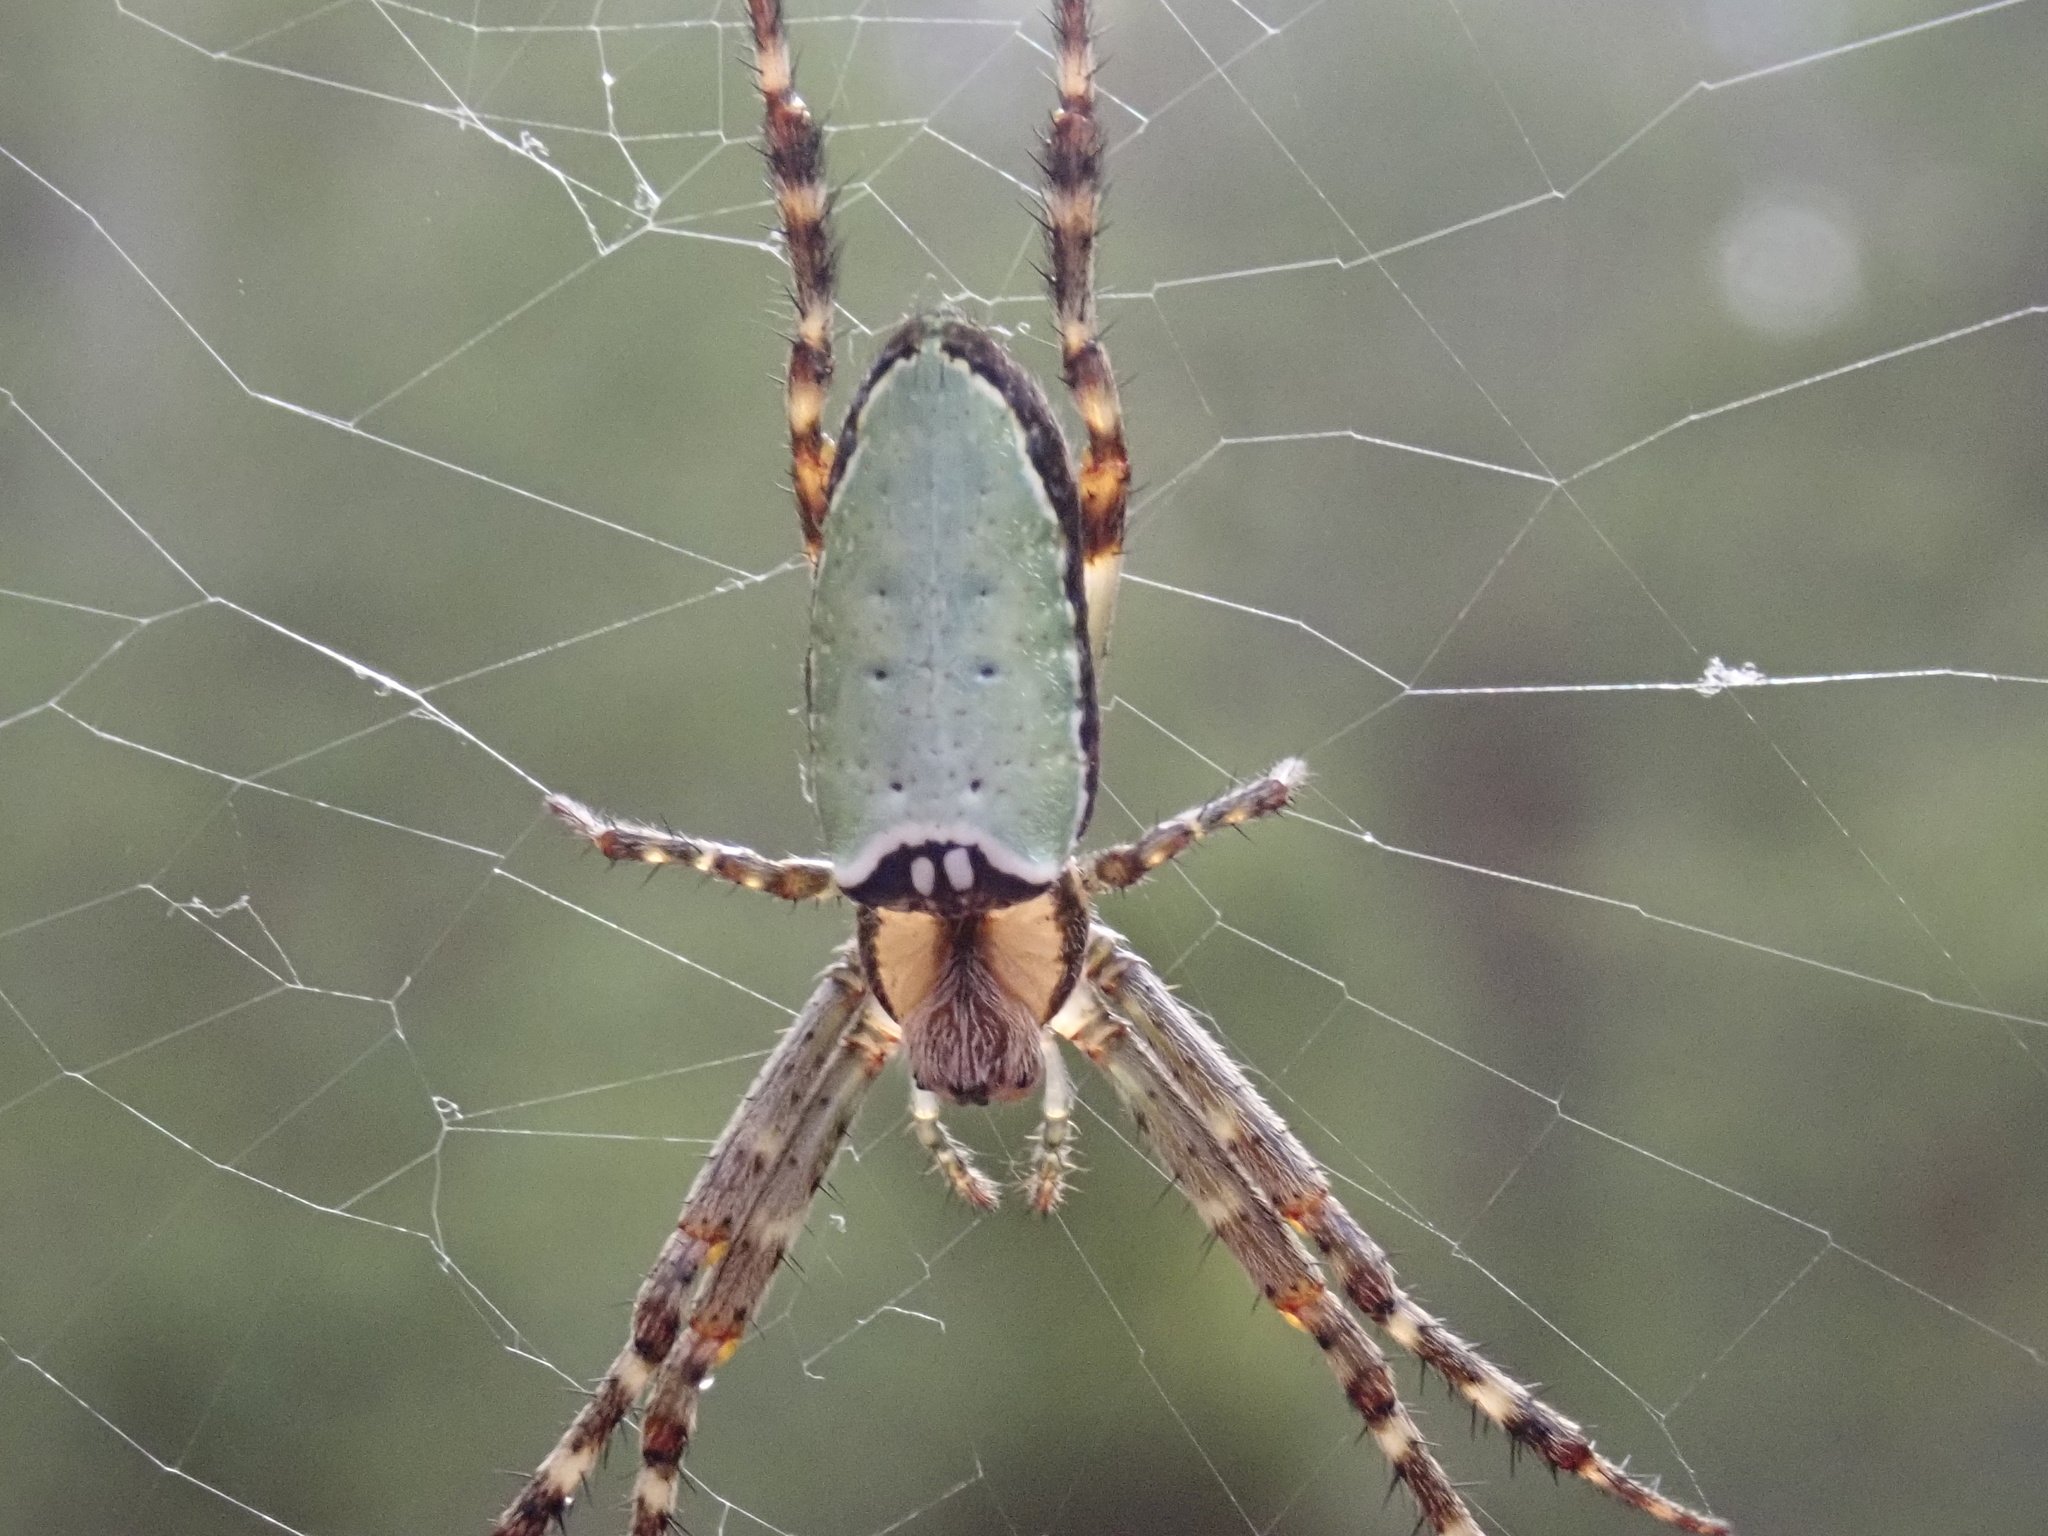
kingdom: Animalia
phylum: Arthropoda
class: Arachnida
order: Araneae
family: Araneidae
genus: Plebs
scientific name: Plebs bradleyi
